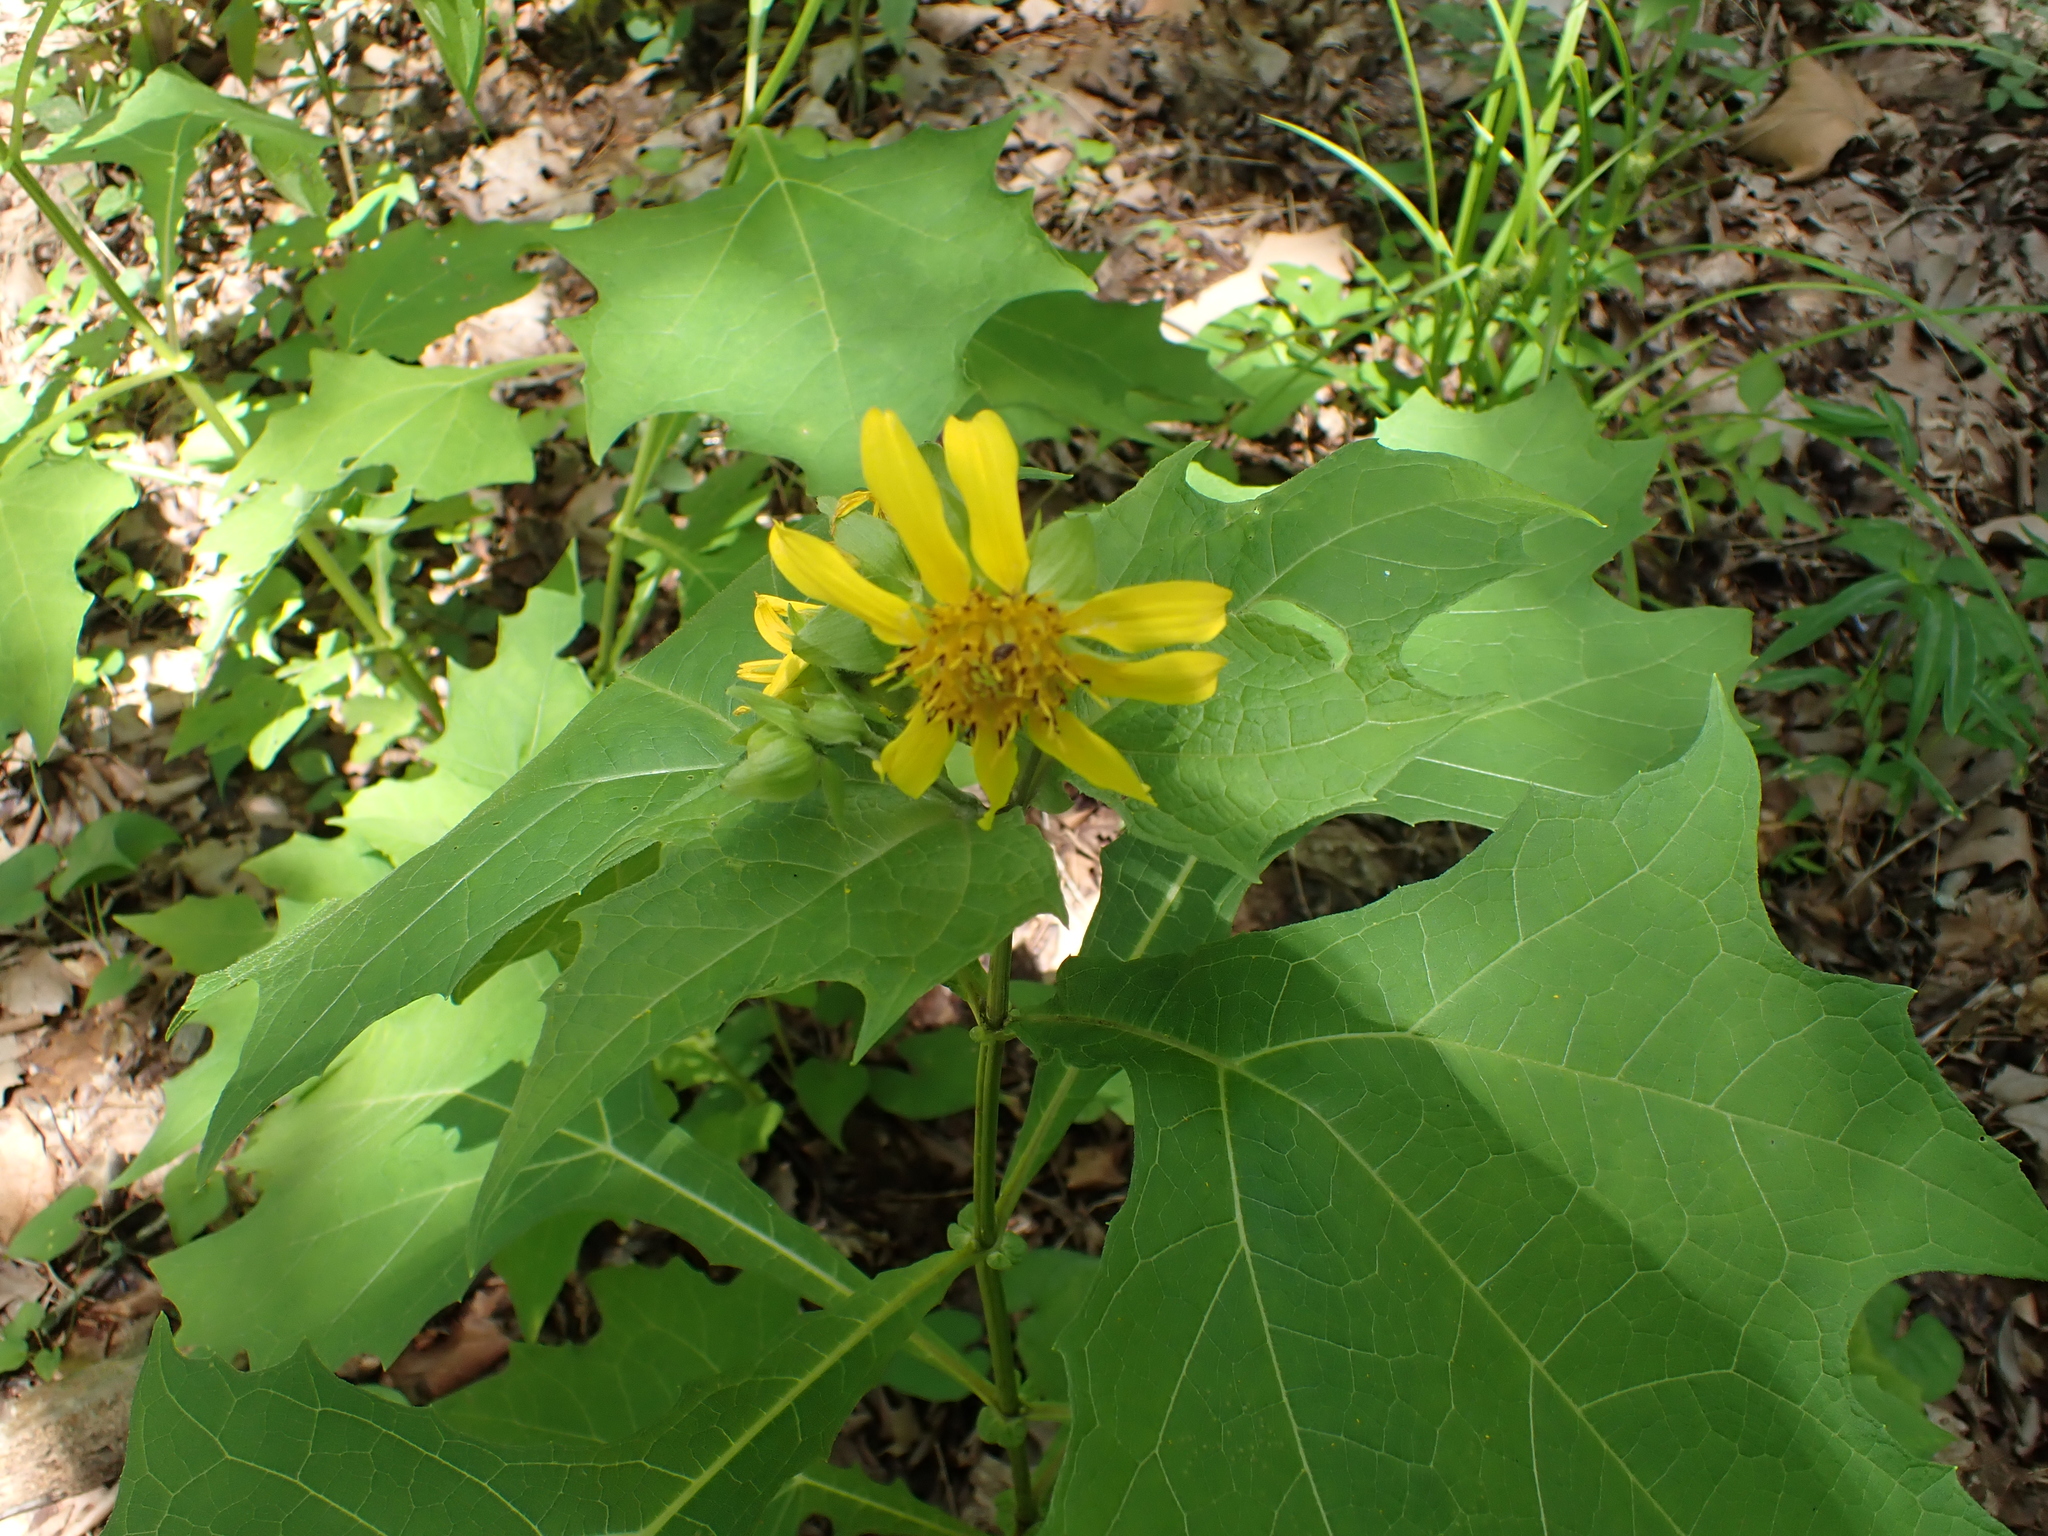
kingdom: Plantae
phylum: Tracheophyta
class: Magnoliopsida
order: Asterales
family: Asteraceae
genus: Smallanthus
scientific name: Smallanthus uvedalia
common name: Bear's-foot
